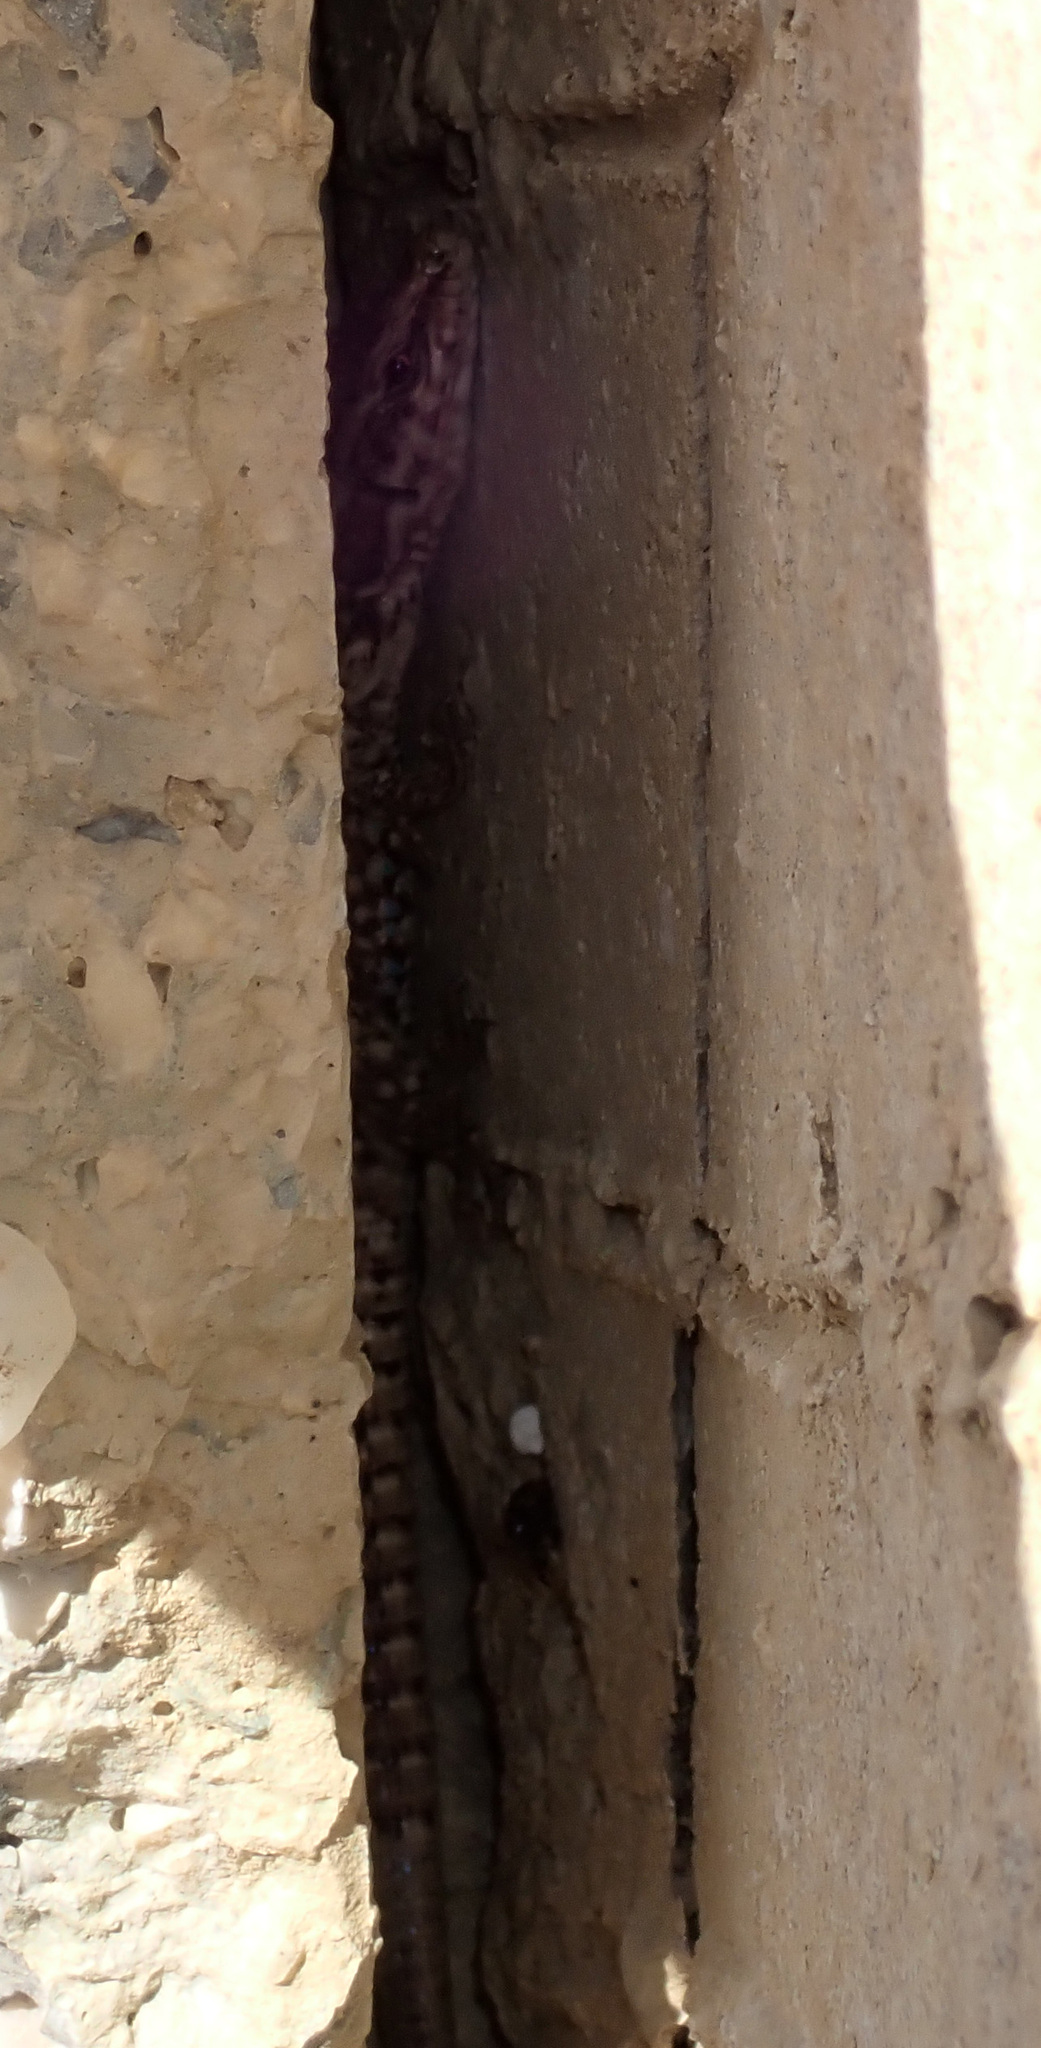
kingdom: Animalia
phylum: Chordata
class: Squamata
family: Lacertidae
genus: Podarcis
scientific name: Podarcis muralis
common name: Common wall lizard
